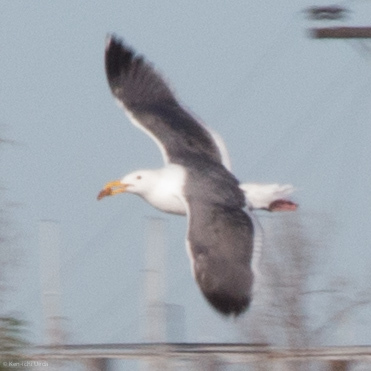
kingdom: Animalia
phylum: Chordata
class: Aves
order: Charadriiformes
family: Laridae
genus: Larus
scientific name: Larus occidentalis
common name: Western gull
